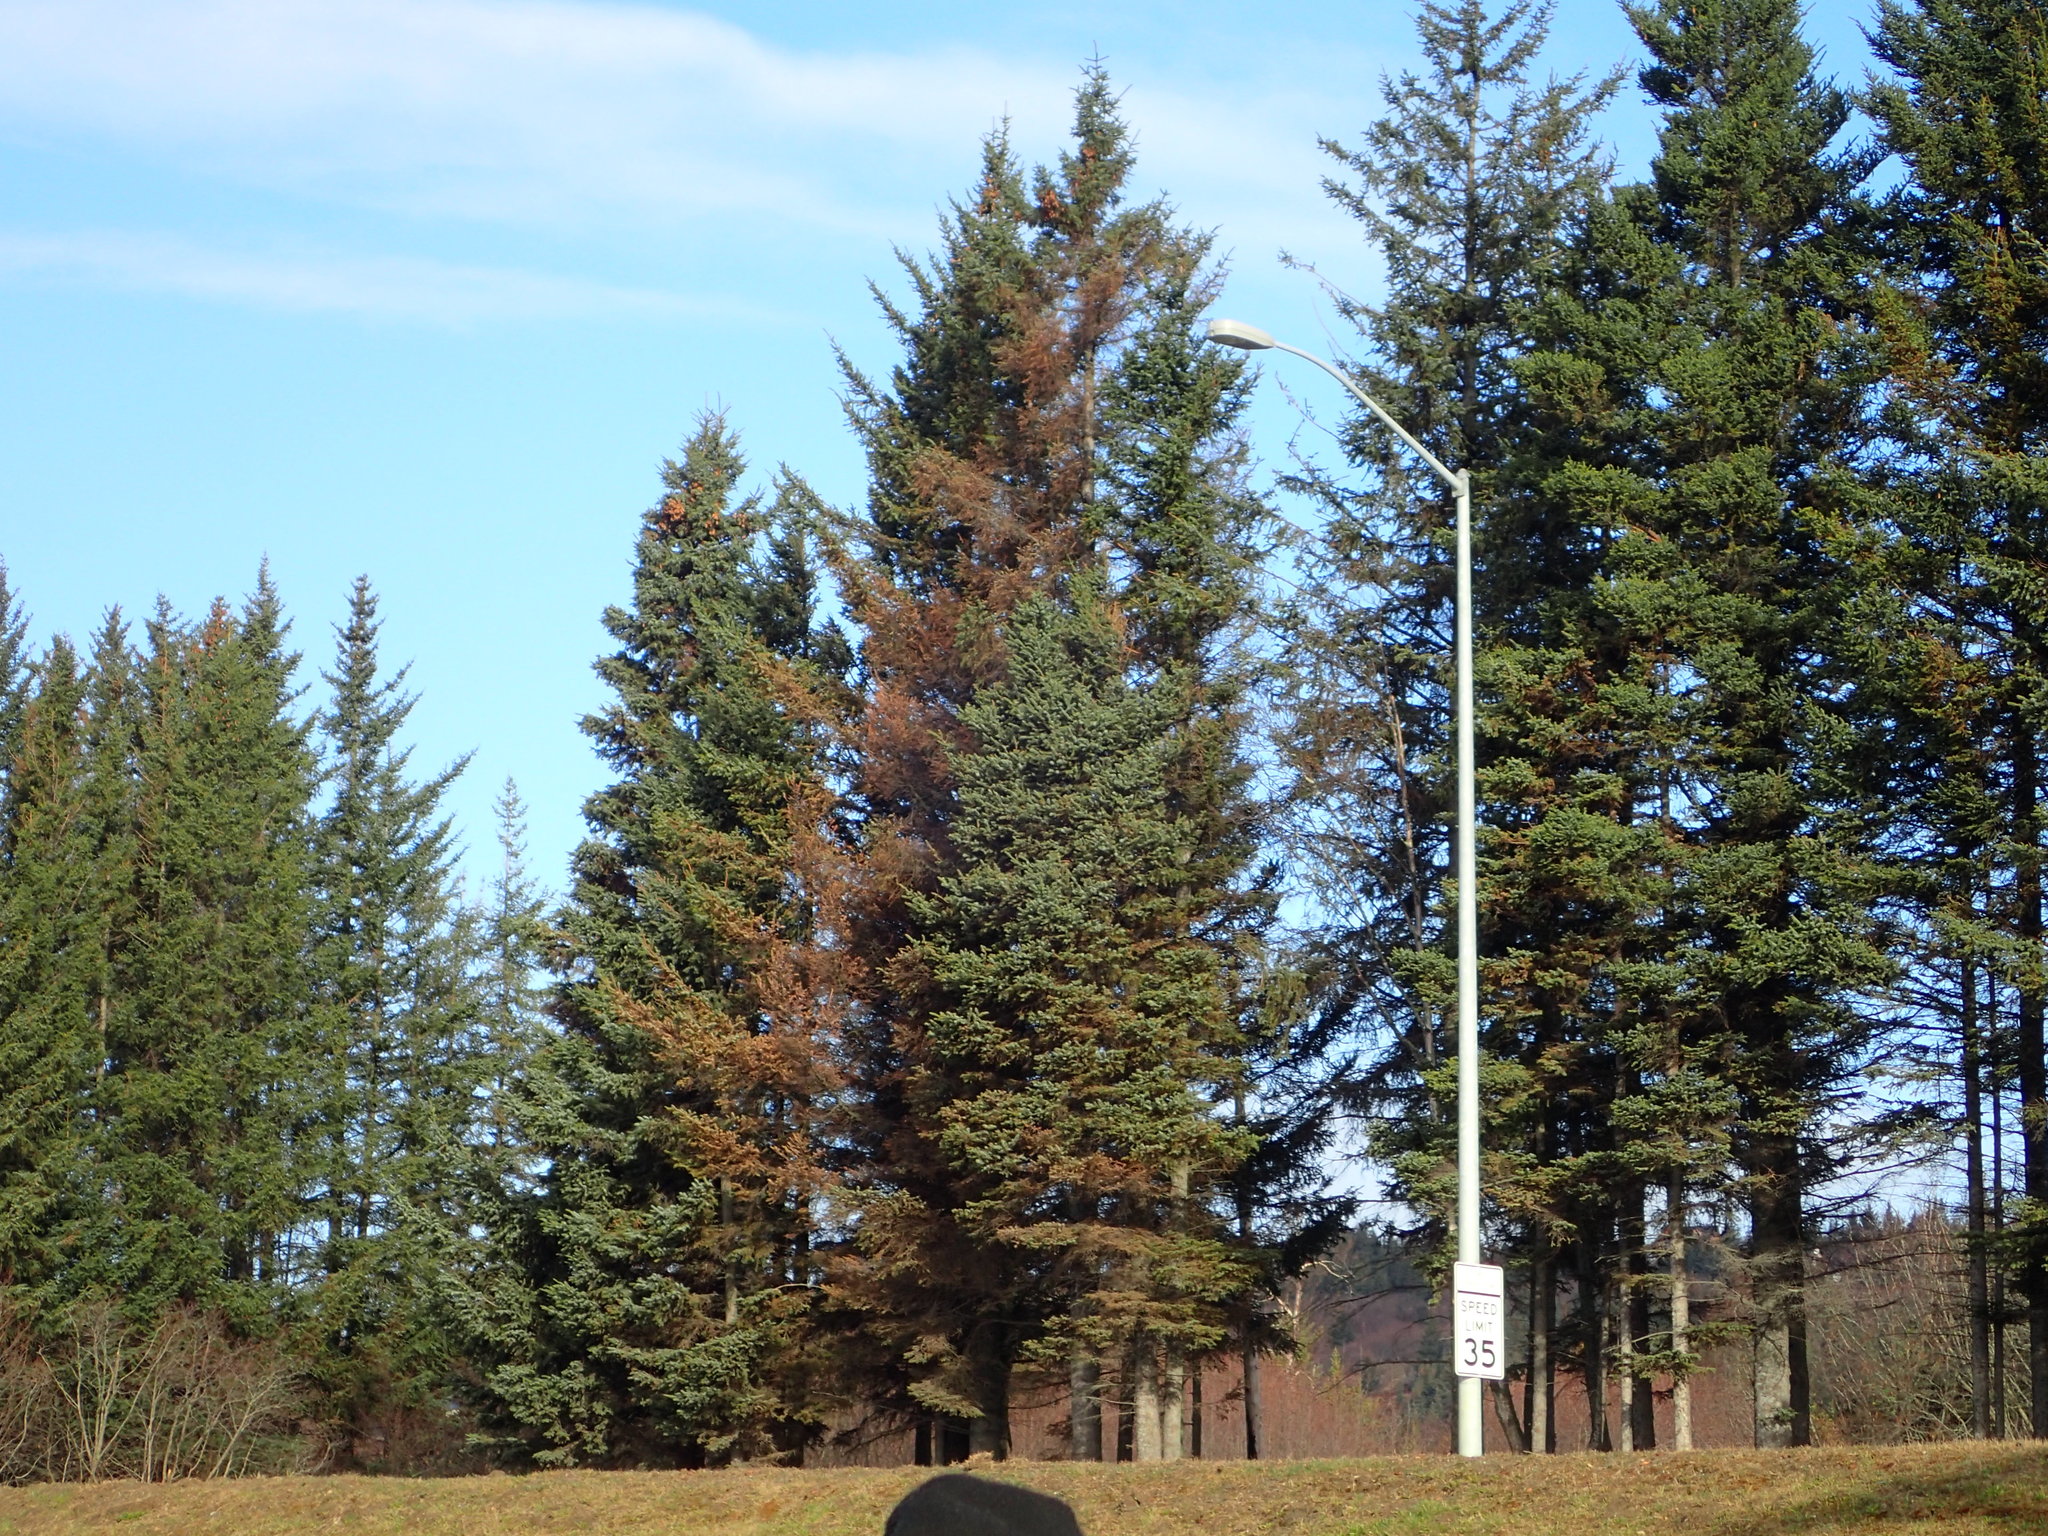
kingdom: Plantae
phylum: Tracheophyta
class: Pinopsida
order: Pinales
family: Pinaceae
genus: Picea
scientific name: Picea sitchensis
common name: Sitka spruce
